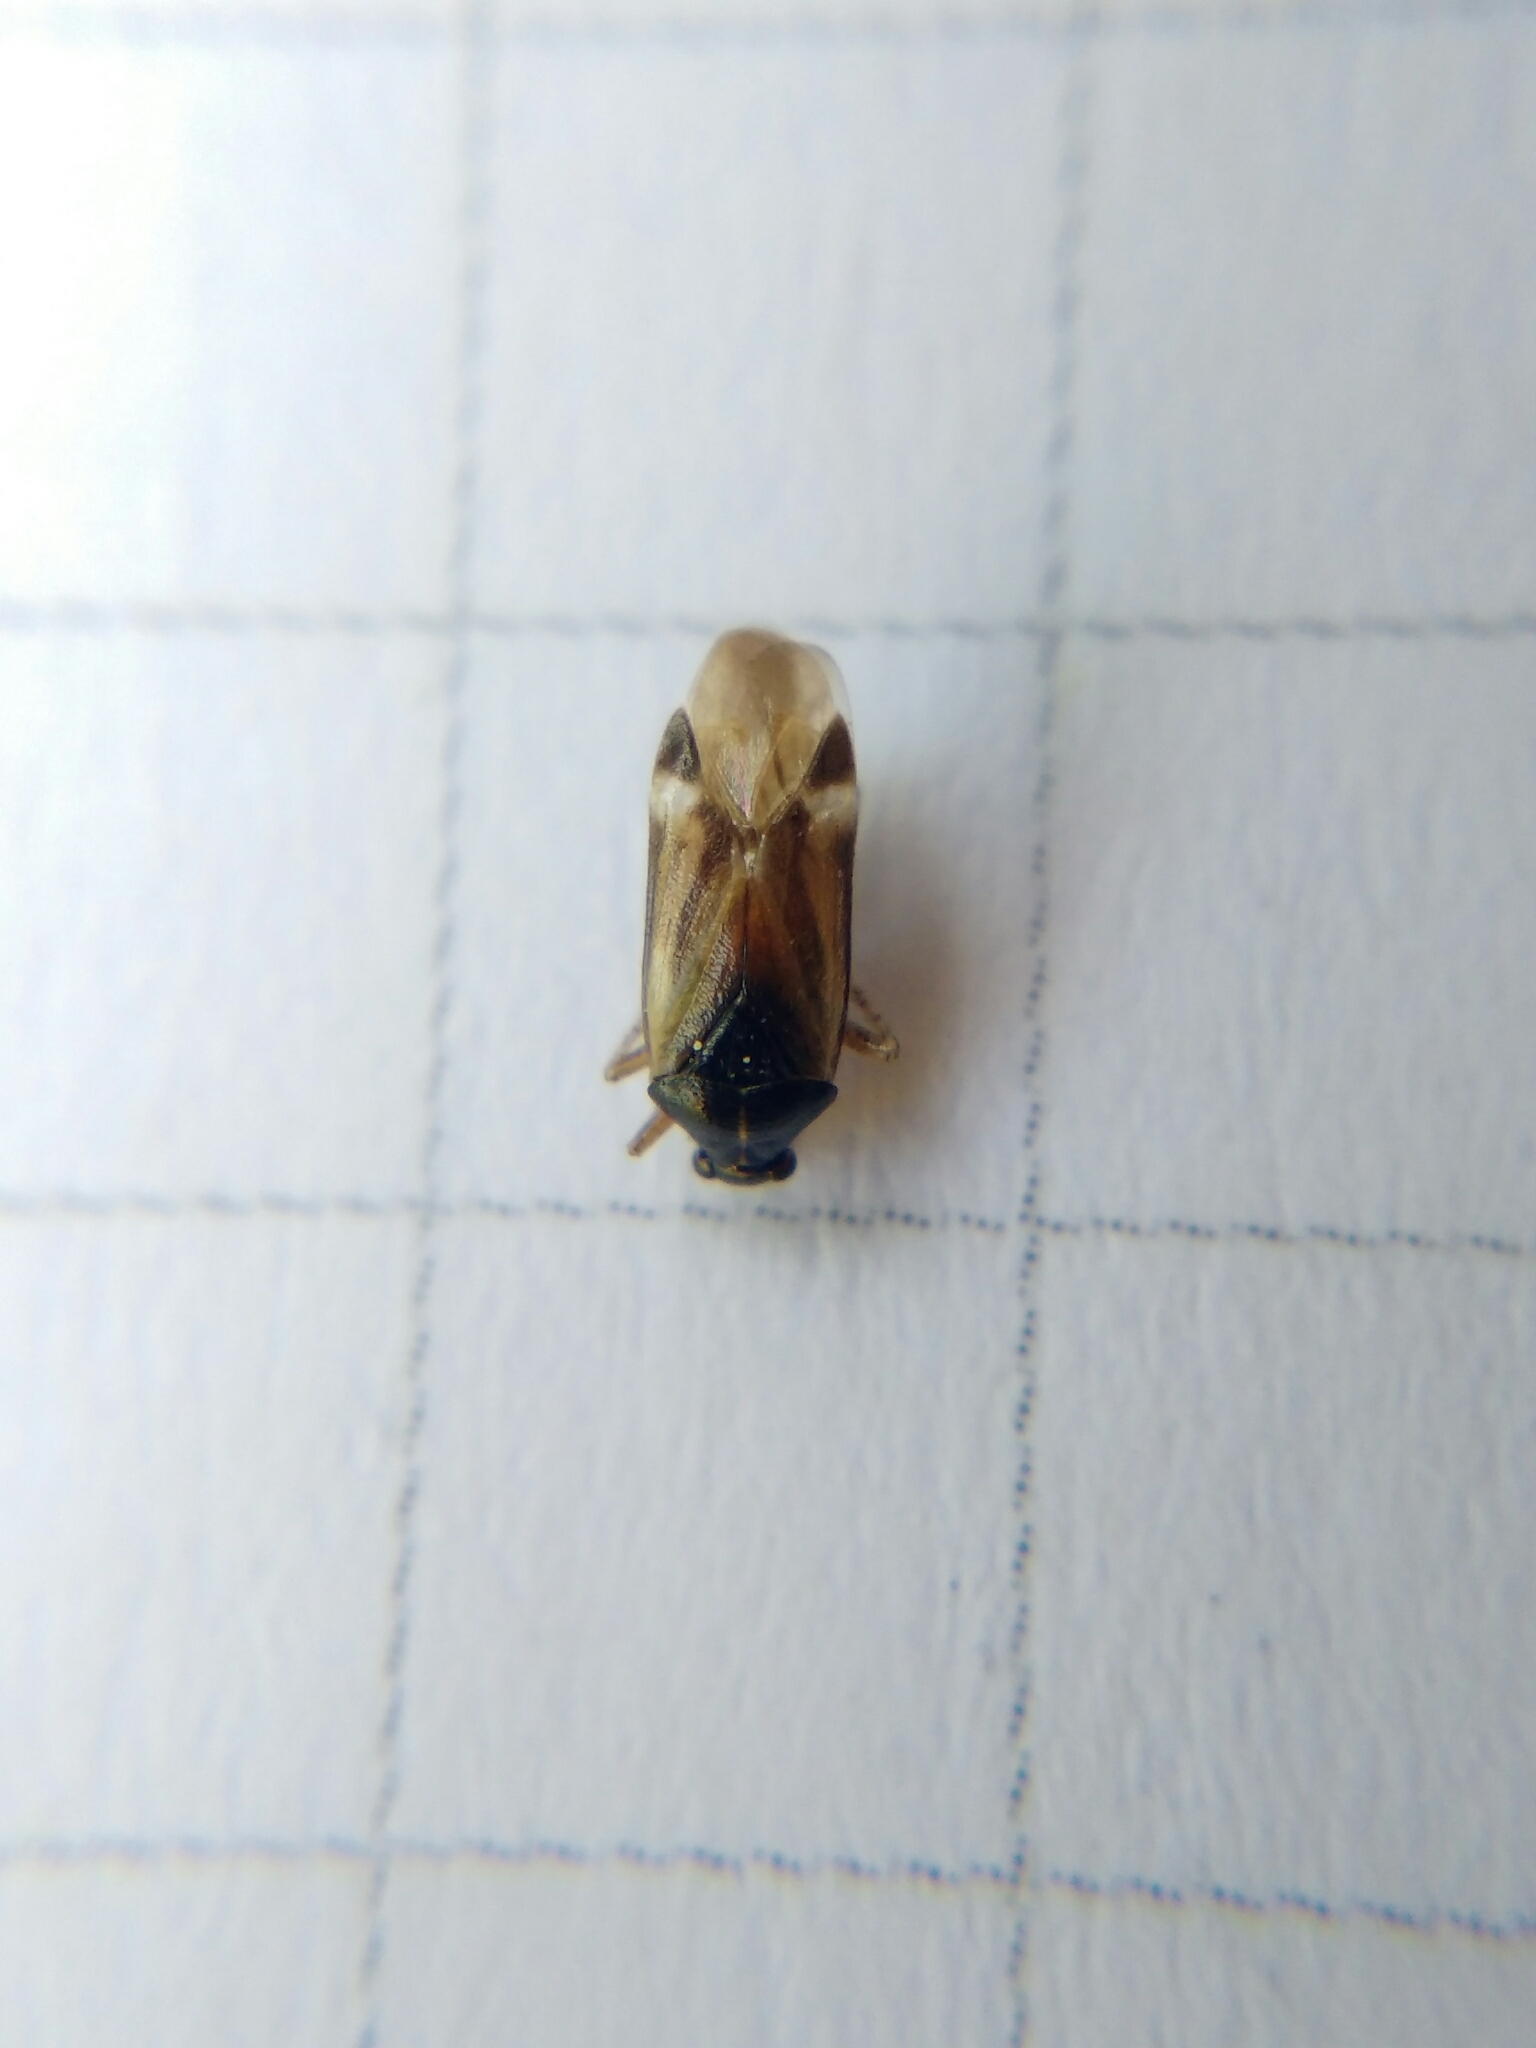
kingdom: Animalia
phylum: Arthropoda
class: Insecta
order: Hemiptera
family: Miridae
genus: Harpocera
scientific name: Harpocera hellenica
